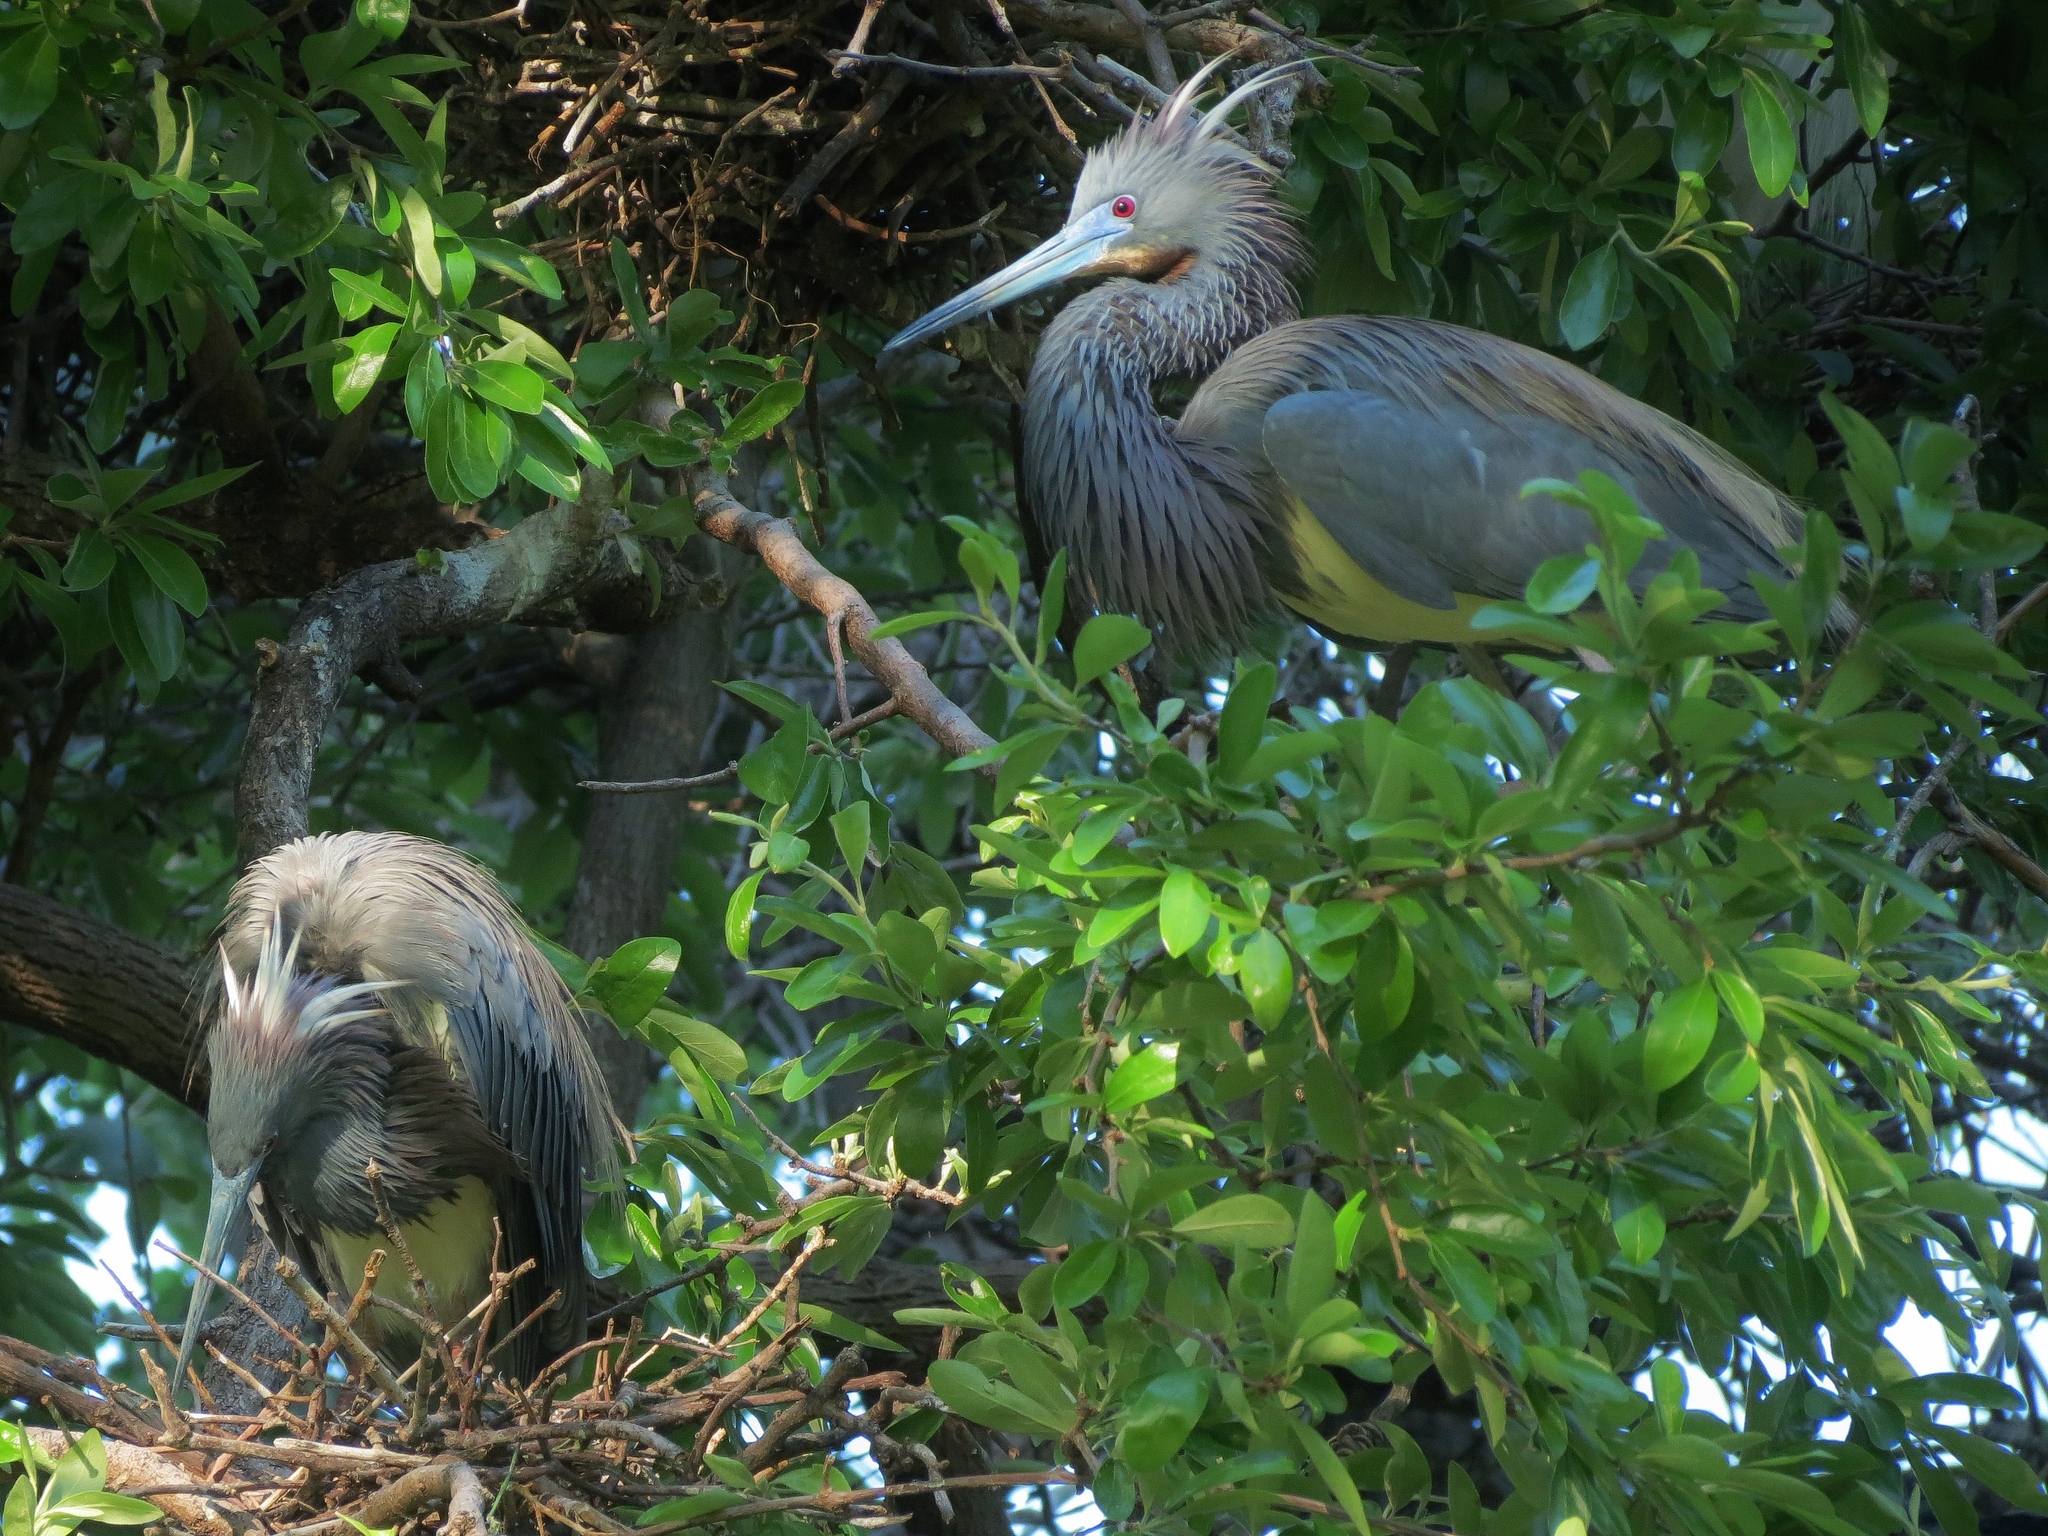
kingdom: Animalia
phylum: Chordata
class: Aves
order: Pelecaniformes
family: Ardeidae
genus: Egretta
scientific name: Egretta tricolor
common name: Tricolored heron
